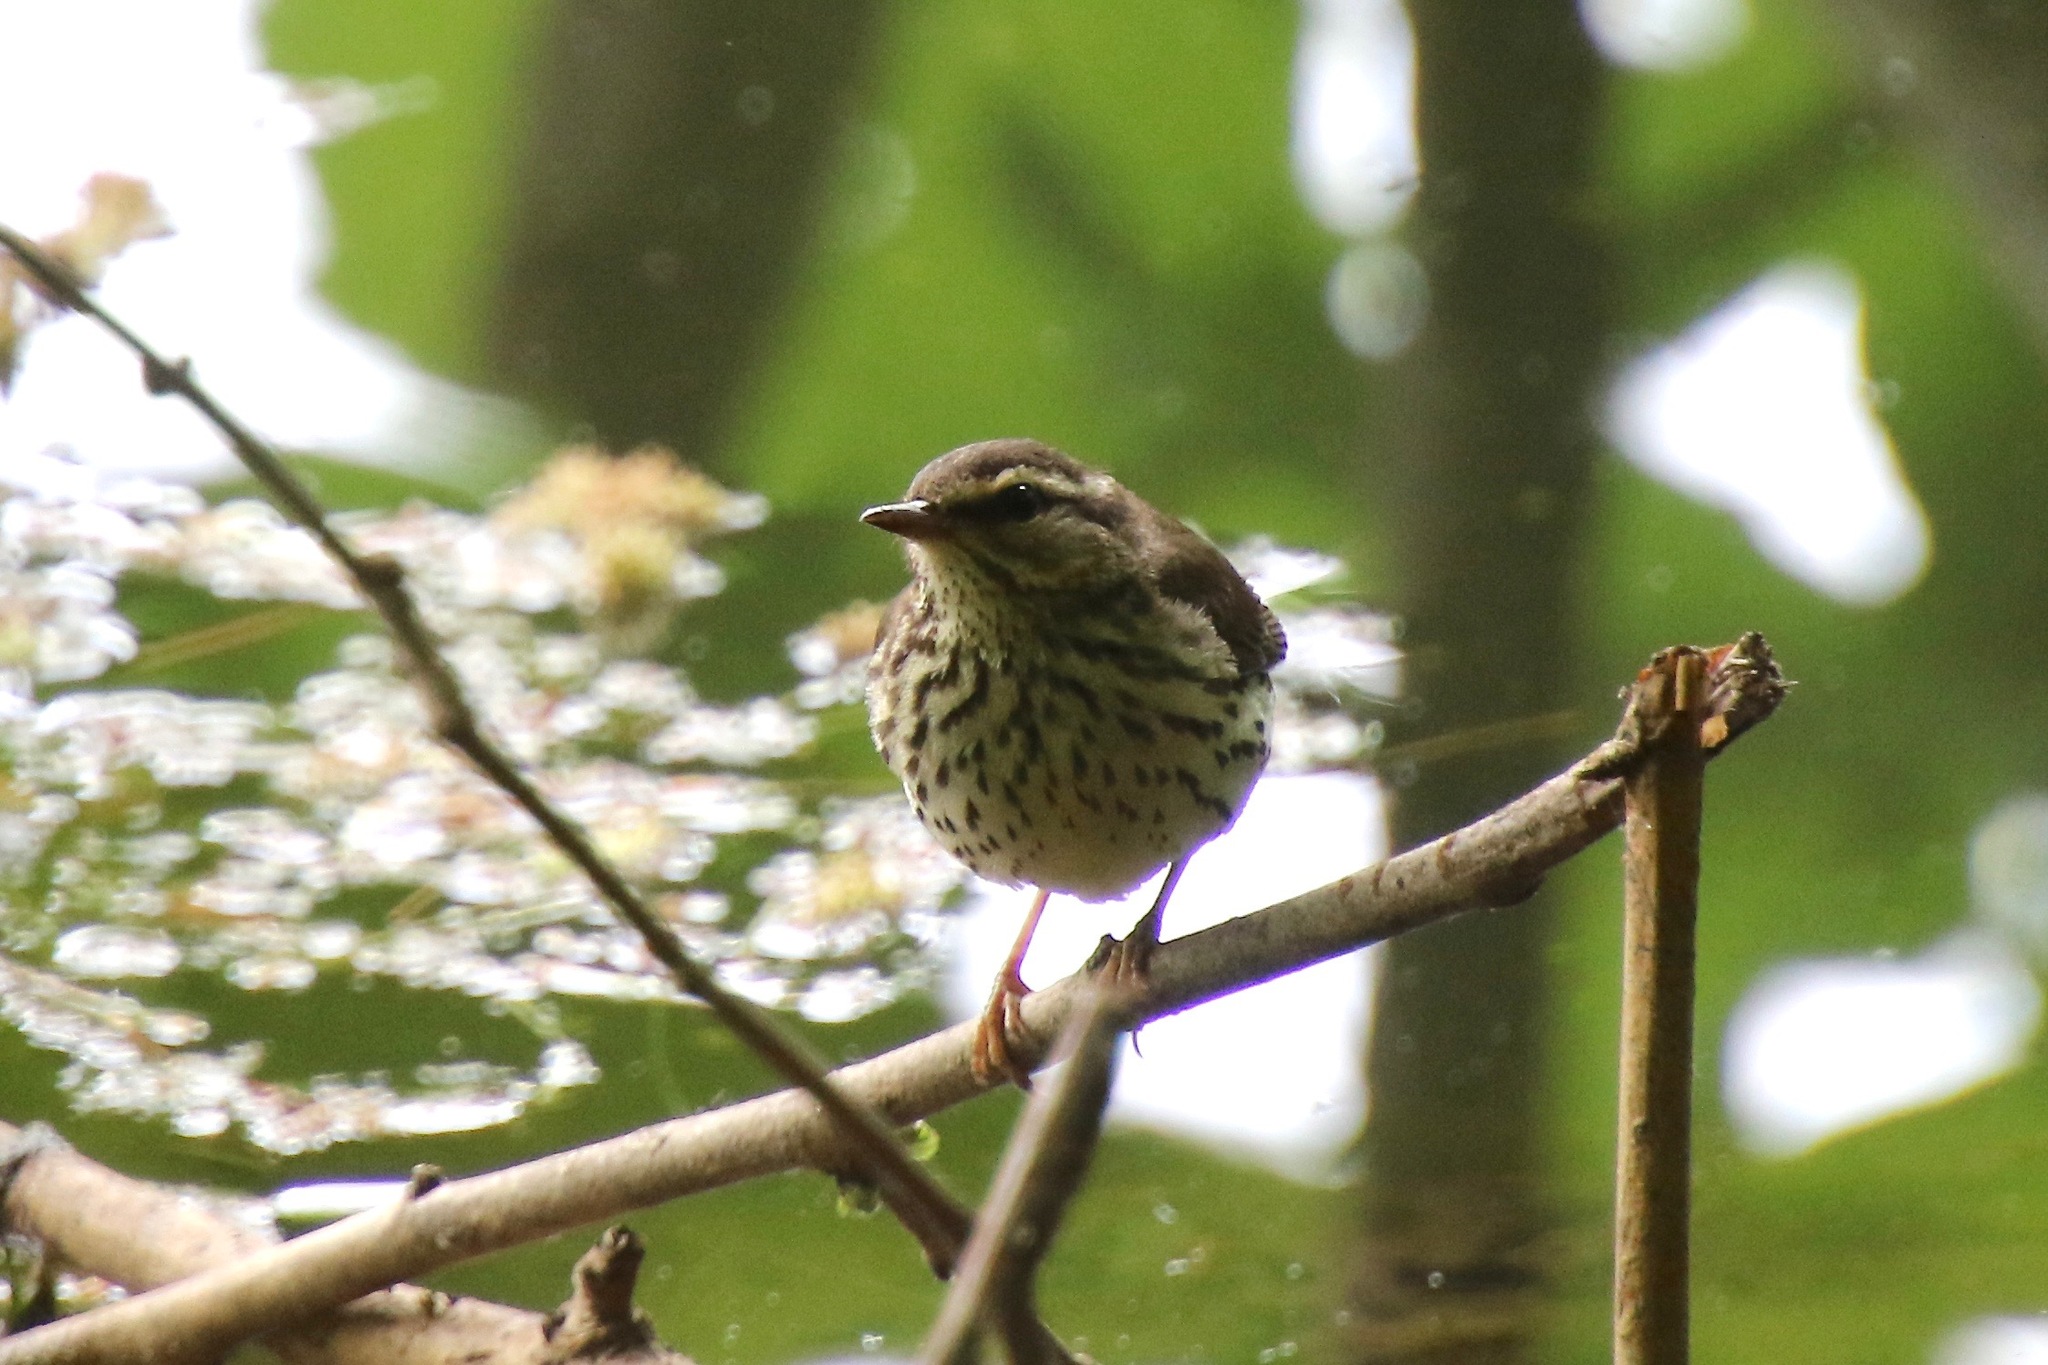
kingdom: Animalia
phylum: Chordata
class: Aves
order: Passeriformes
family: Parulidae
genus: Parkesia
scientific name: Parkesia noveboracensis
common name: Northern waterthrush
